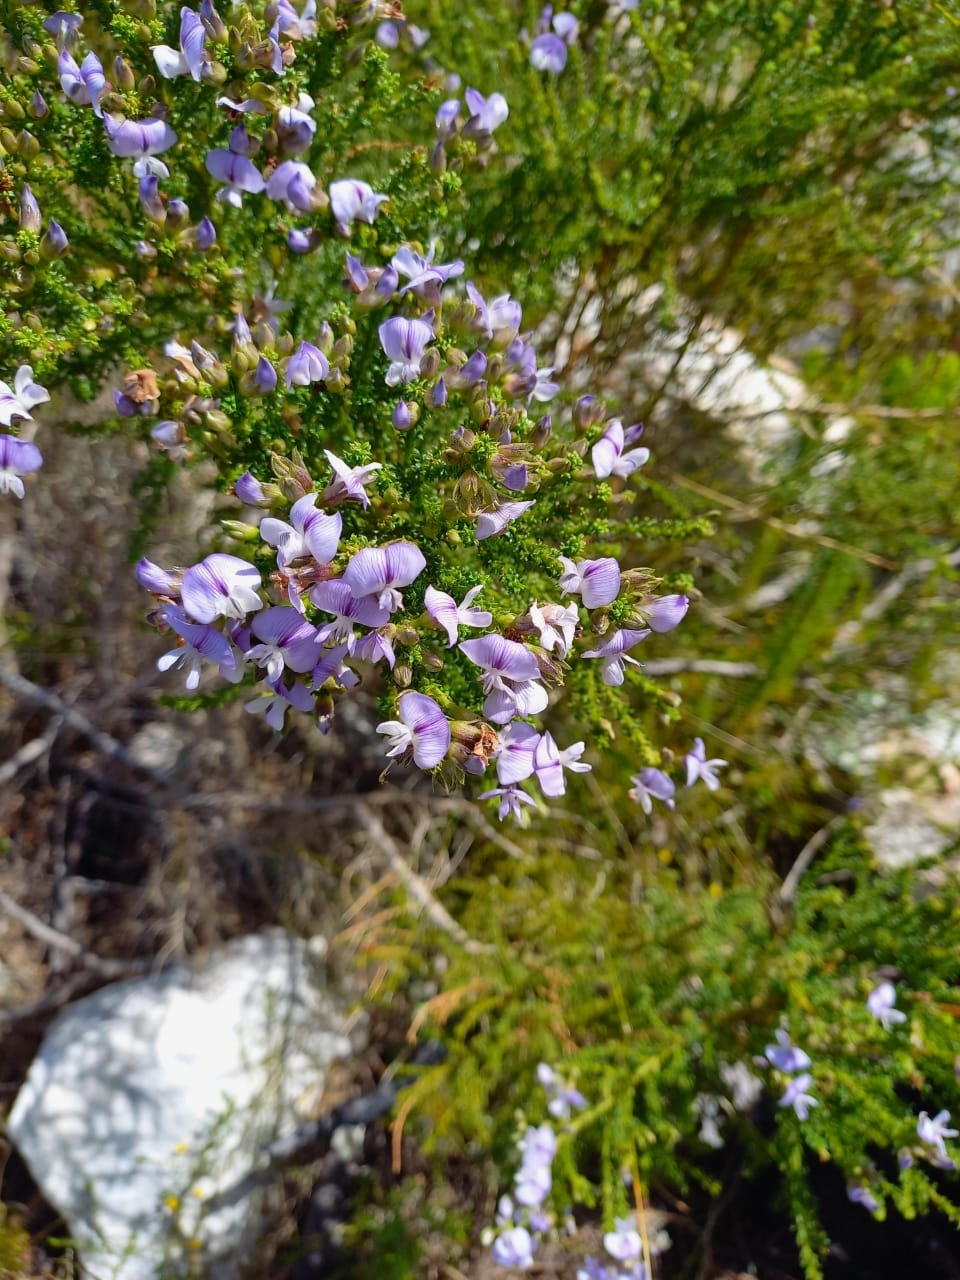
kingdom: Plantae
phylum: Tracheophyta
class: Magnoliopsida
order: Fabales
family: Fabaceae
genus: Psoralea
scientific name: Psoralea aculeata
